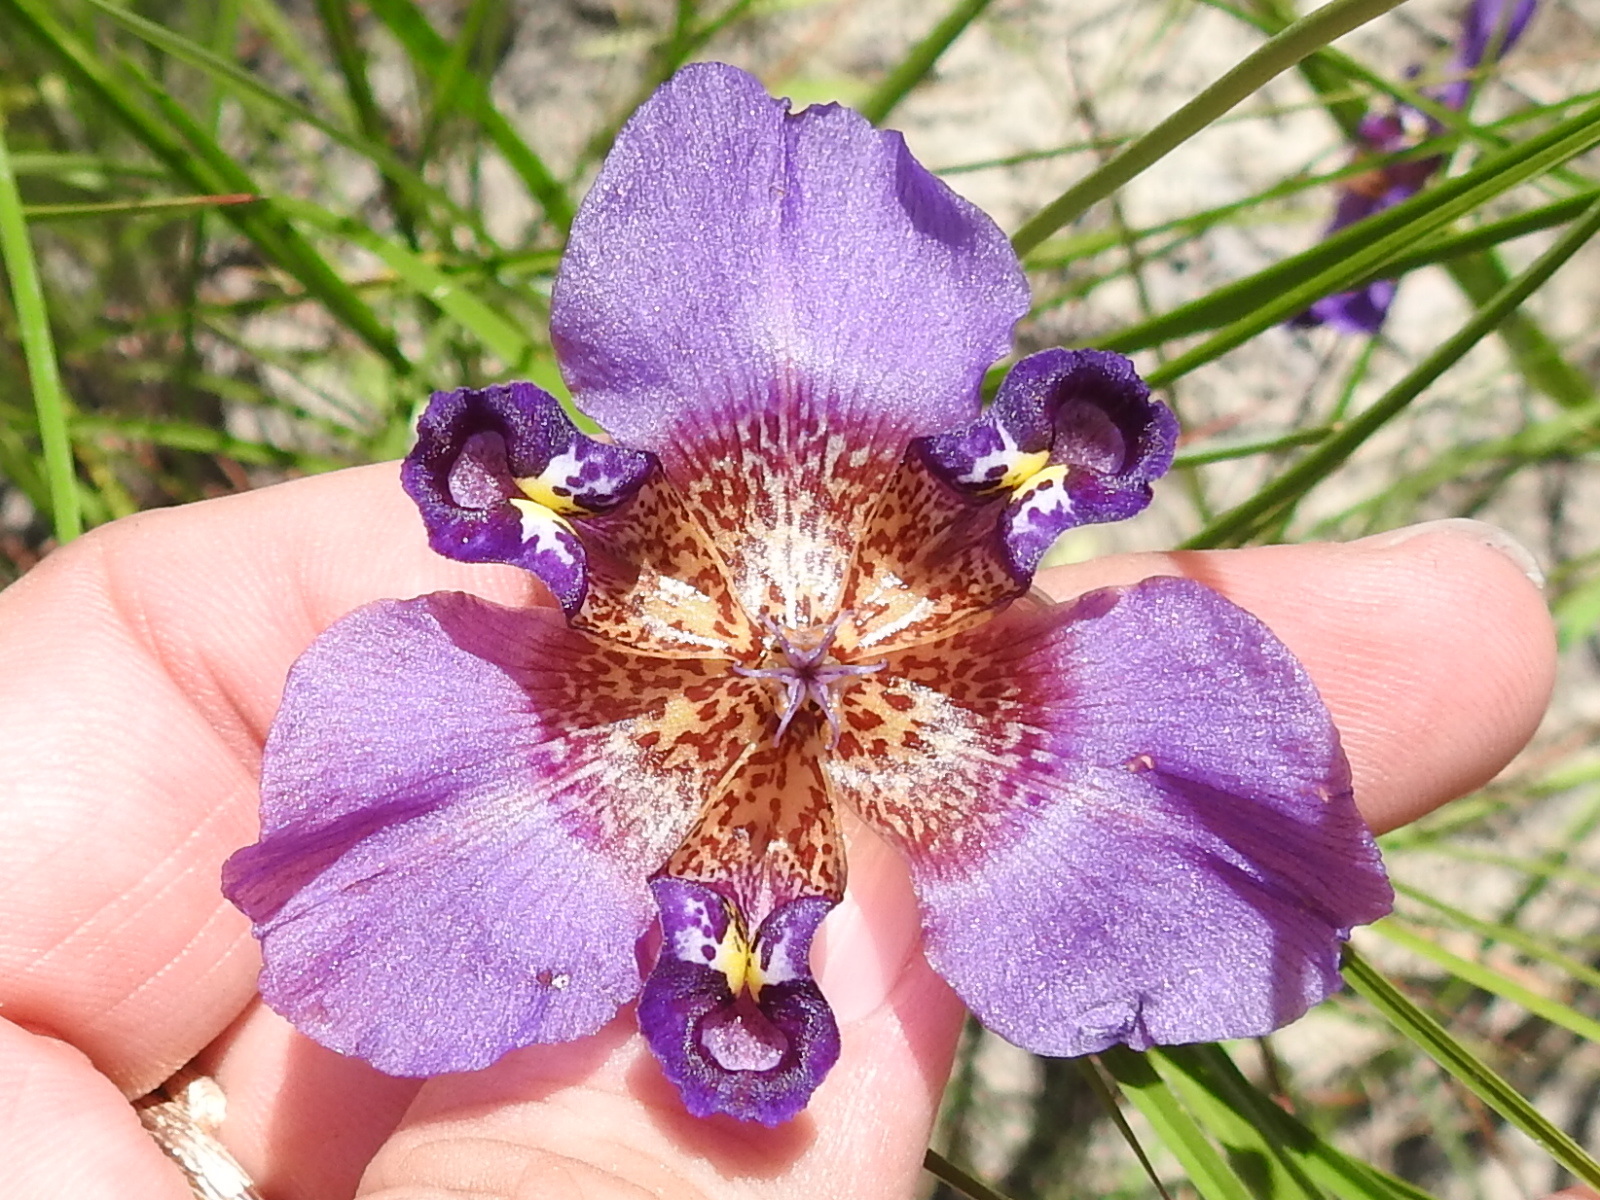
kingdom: Plantae
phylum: Tracheophyta
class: Liliopsida
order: Asparagales
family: Iridaceae
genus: Alophia
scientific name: Alophia drummondii
